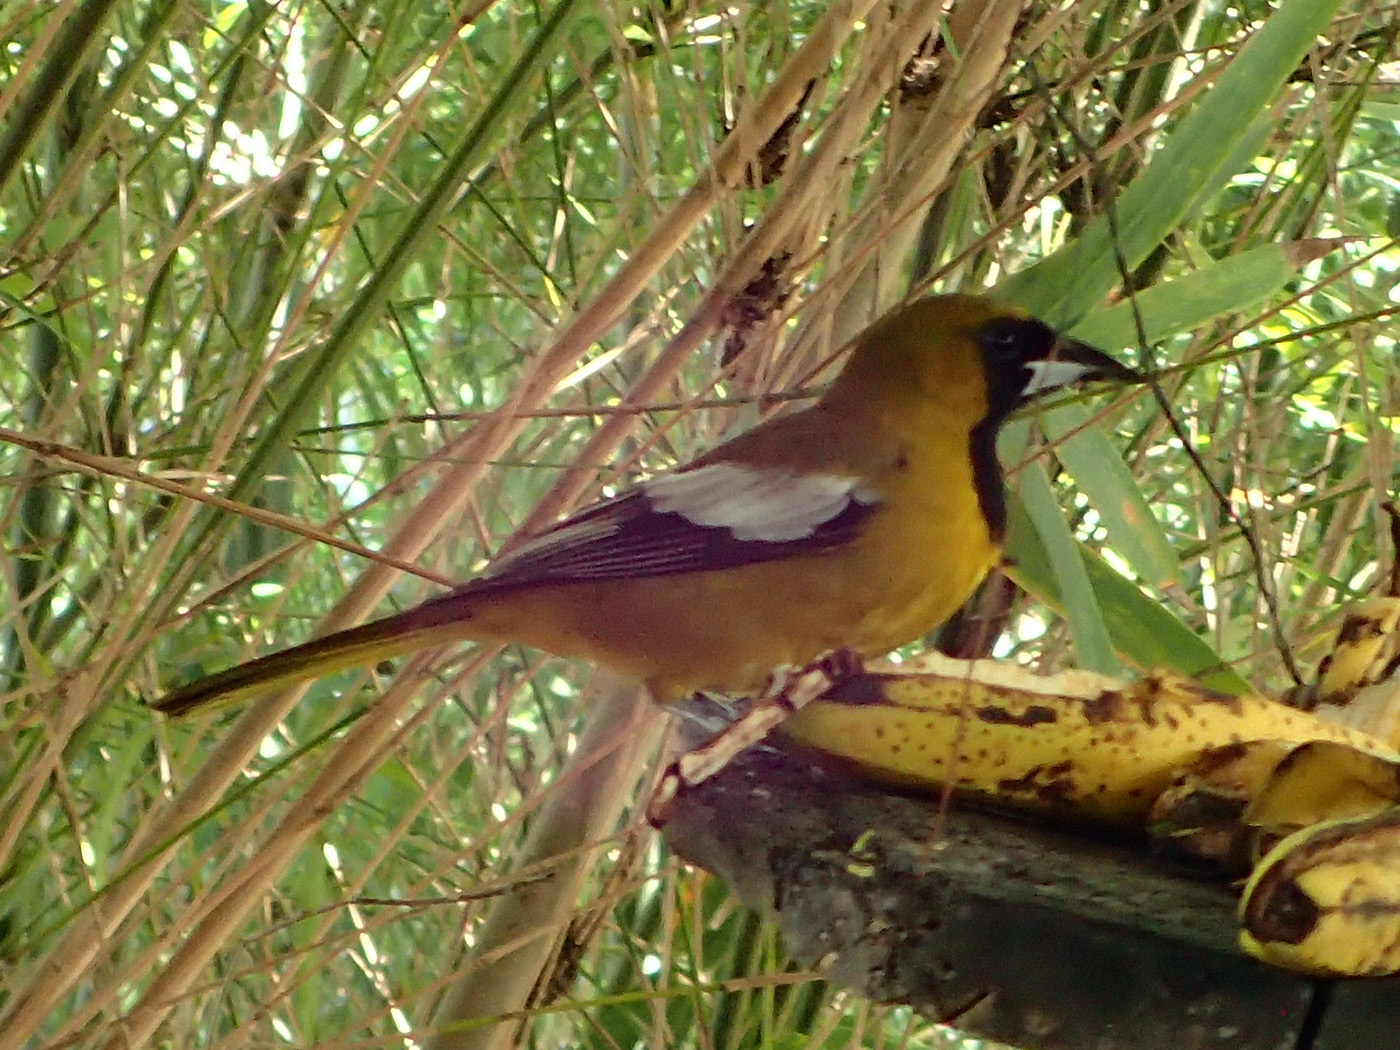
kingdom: Animalia
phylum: Chordata
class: Aves
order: Passeriformes
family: Icteridae
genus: Icterus
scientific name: Icterus leucopteryx
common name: Jamaican oriole
